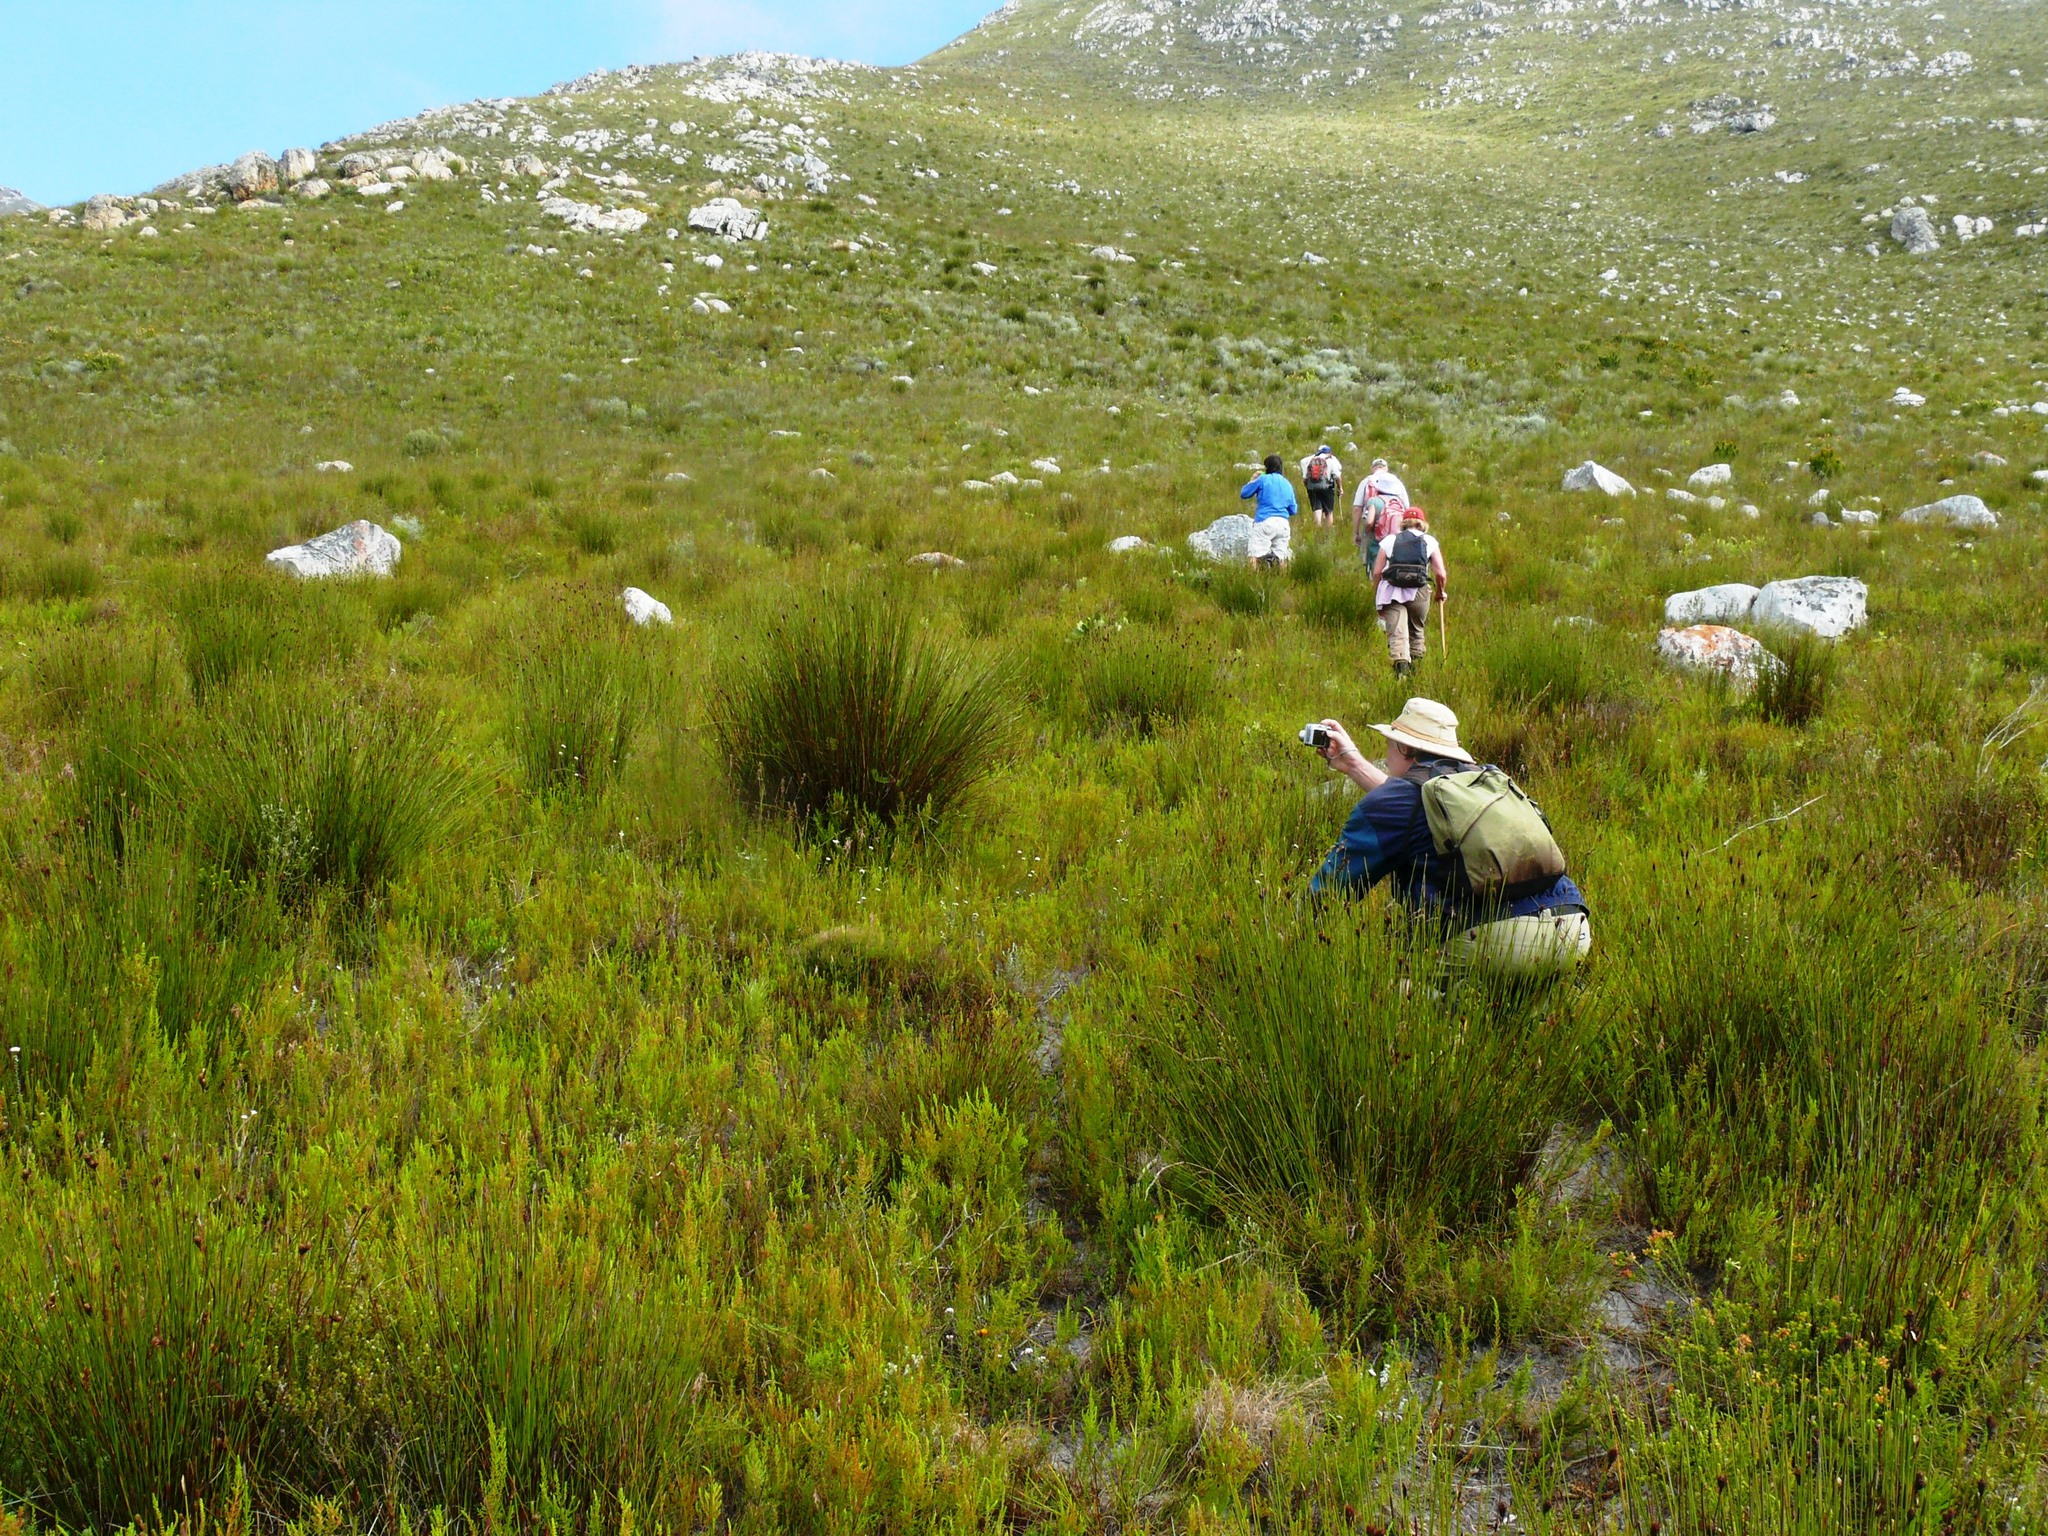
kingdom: Plantae
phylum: Tracheophyta
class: Liliopsida
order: Poales
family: Restionaceae
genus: Hypodiscus
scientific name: Hypodiscus aristatus
